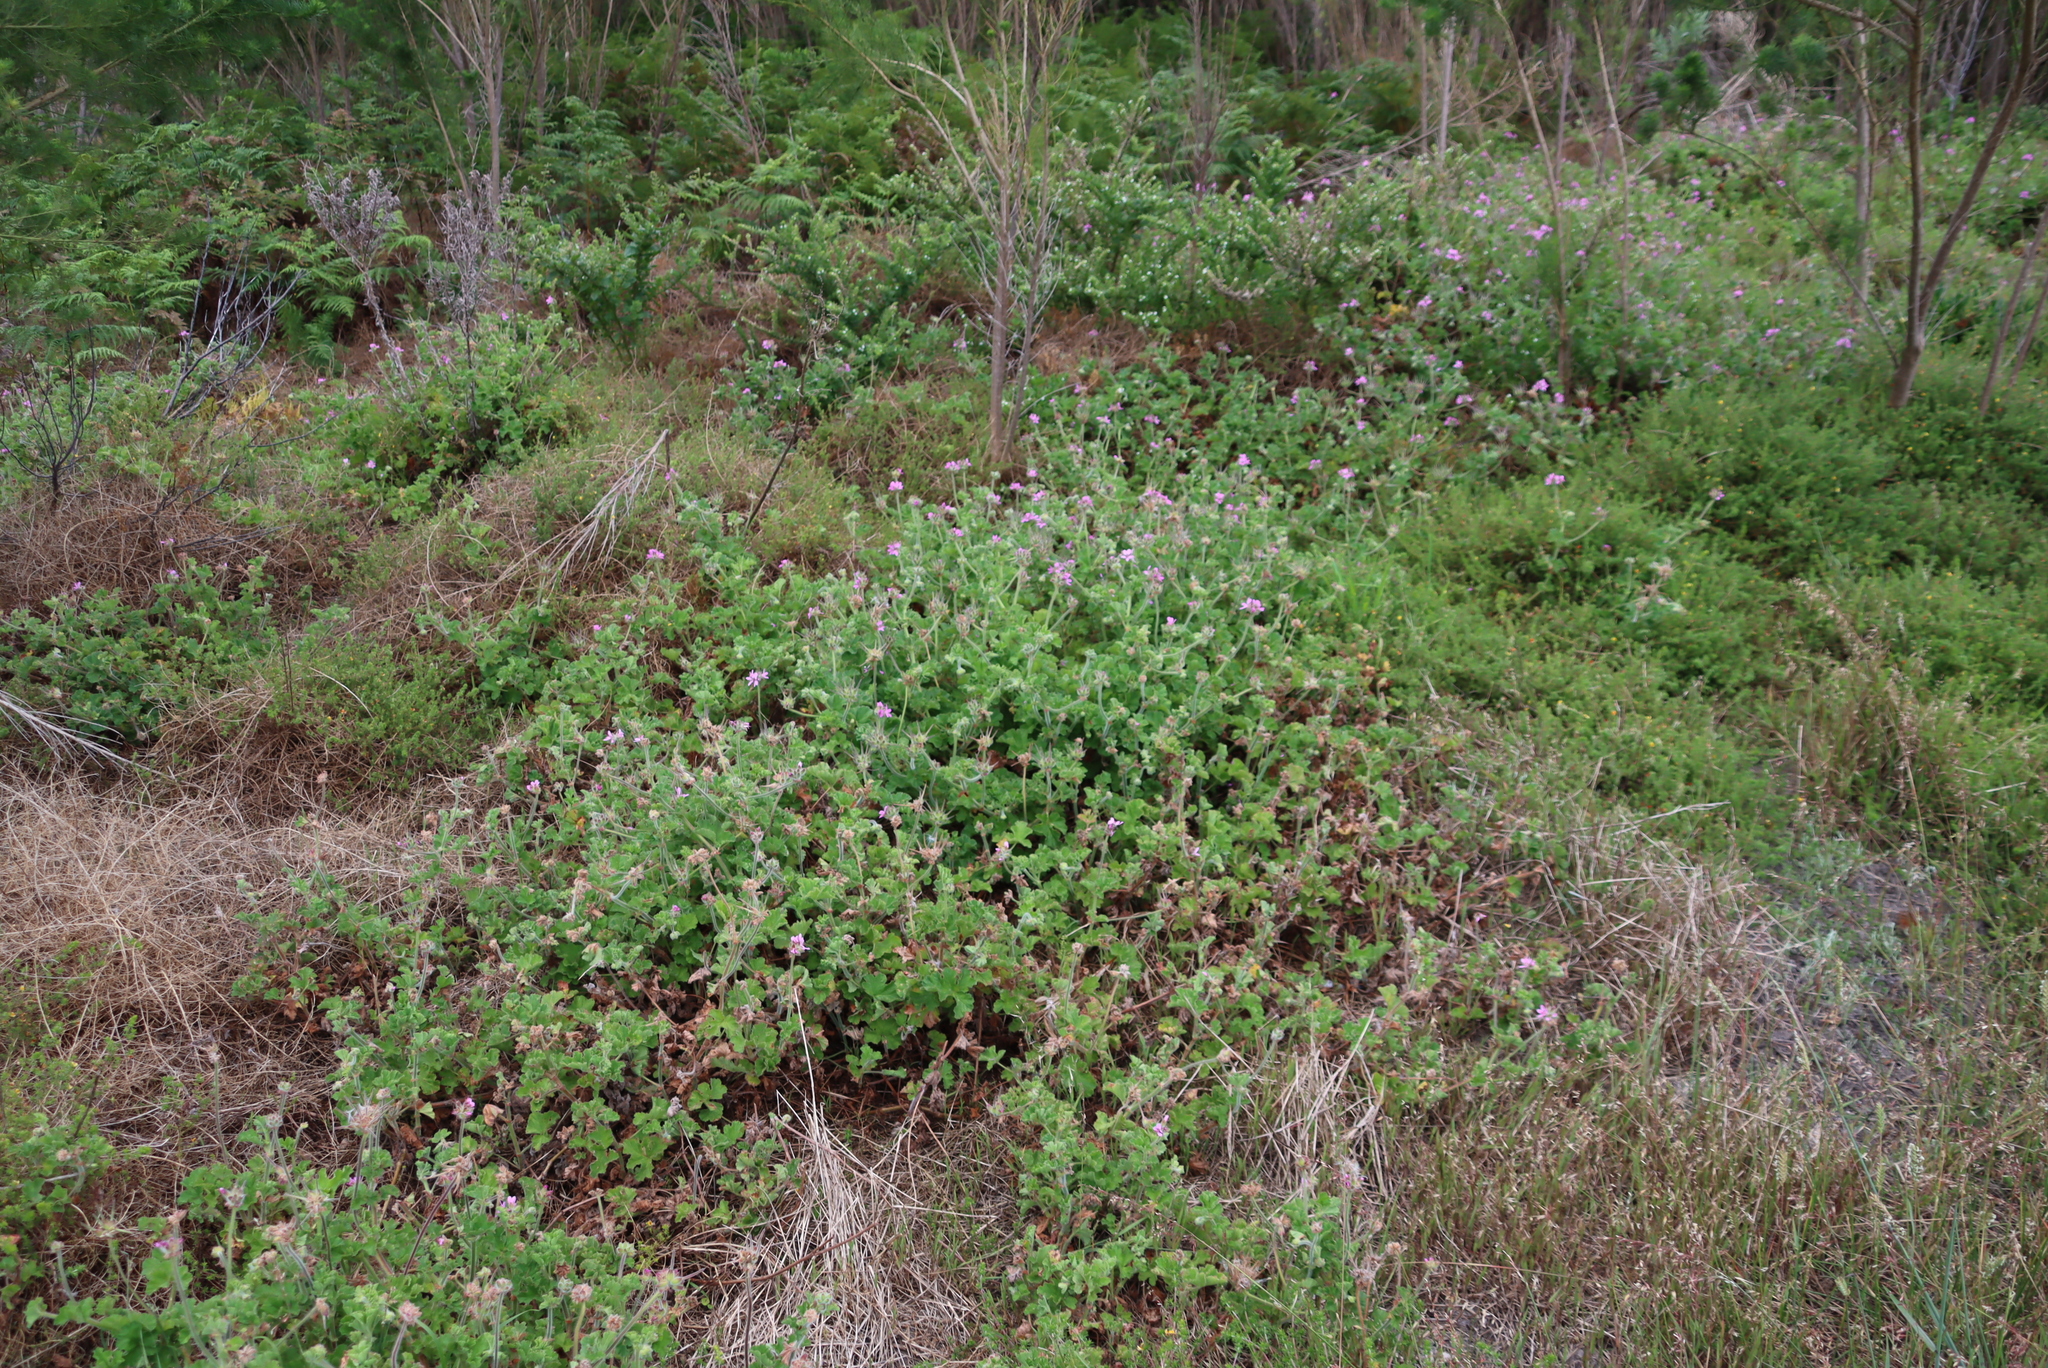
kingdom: Plantae
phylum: Tracheophyta
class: Magnoliopsida
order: Geraniales
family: Geraniaceae
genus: Pelargonium
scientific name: Pelargonium capitatum
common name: Rose scented geranium
